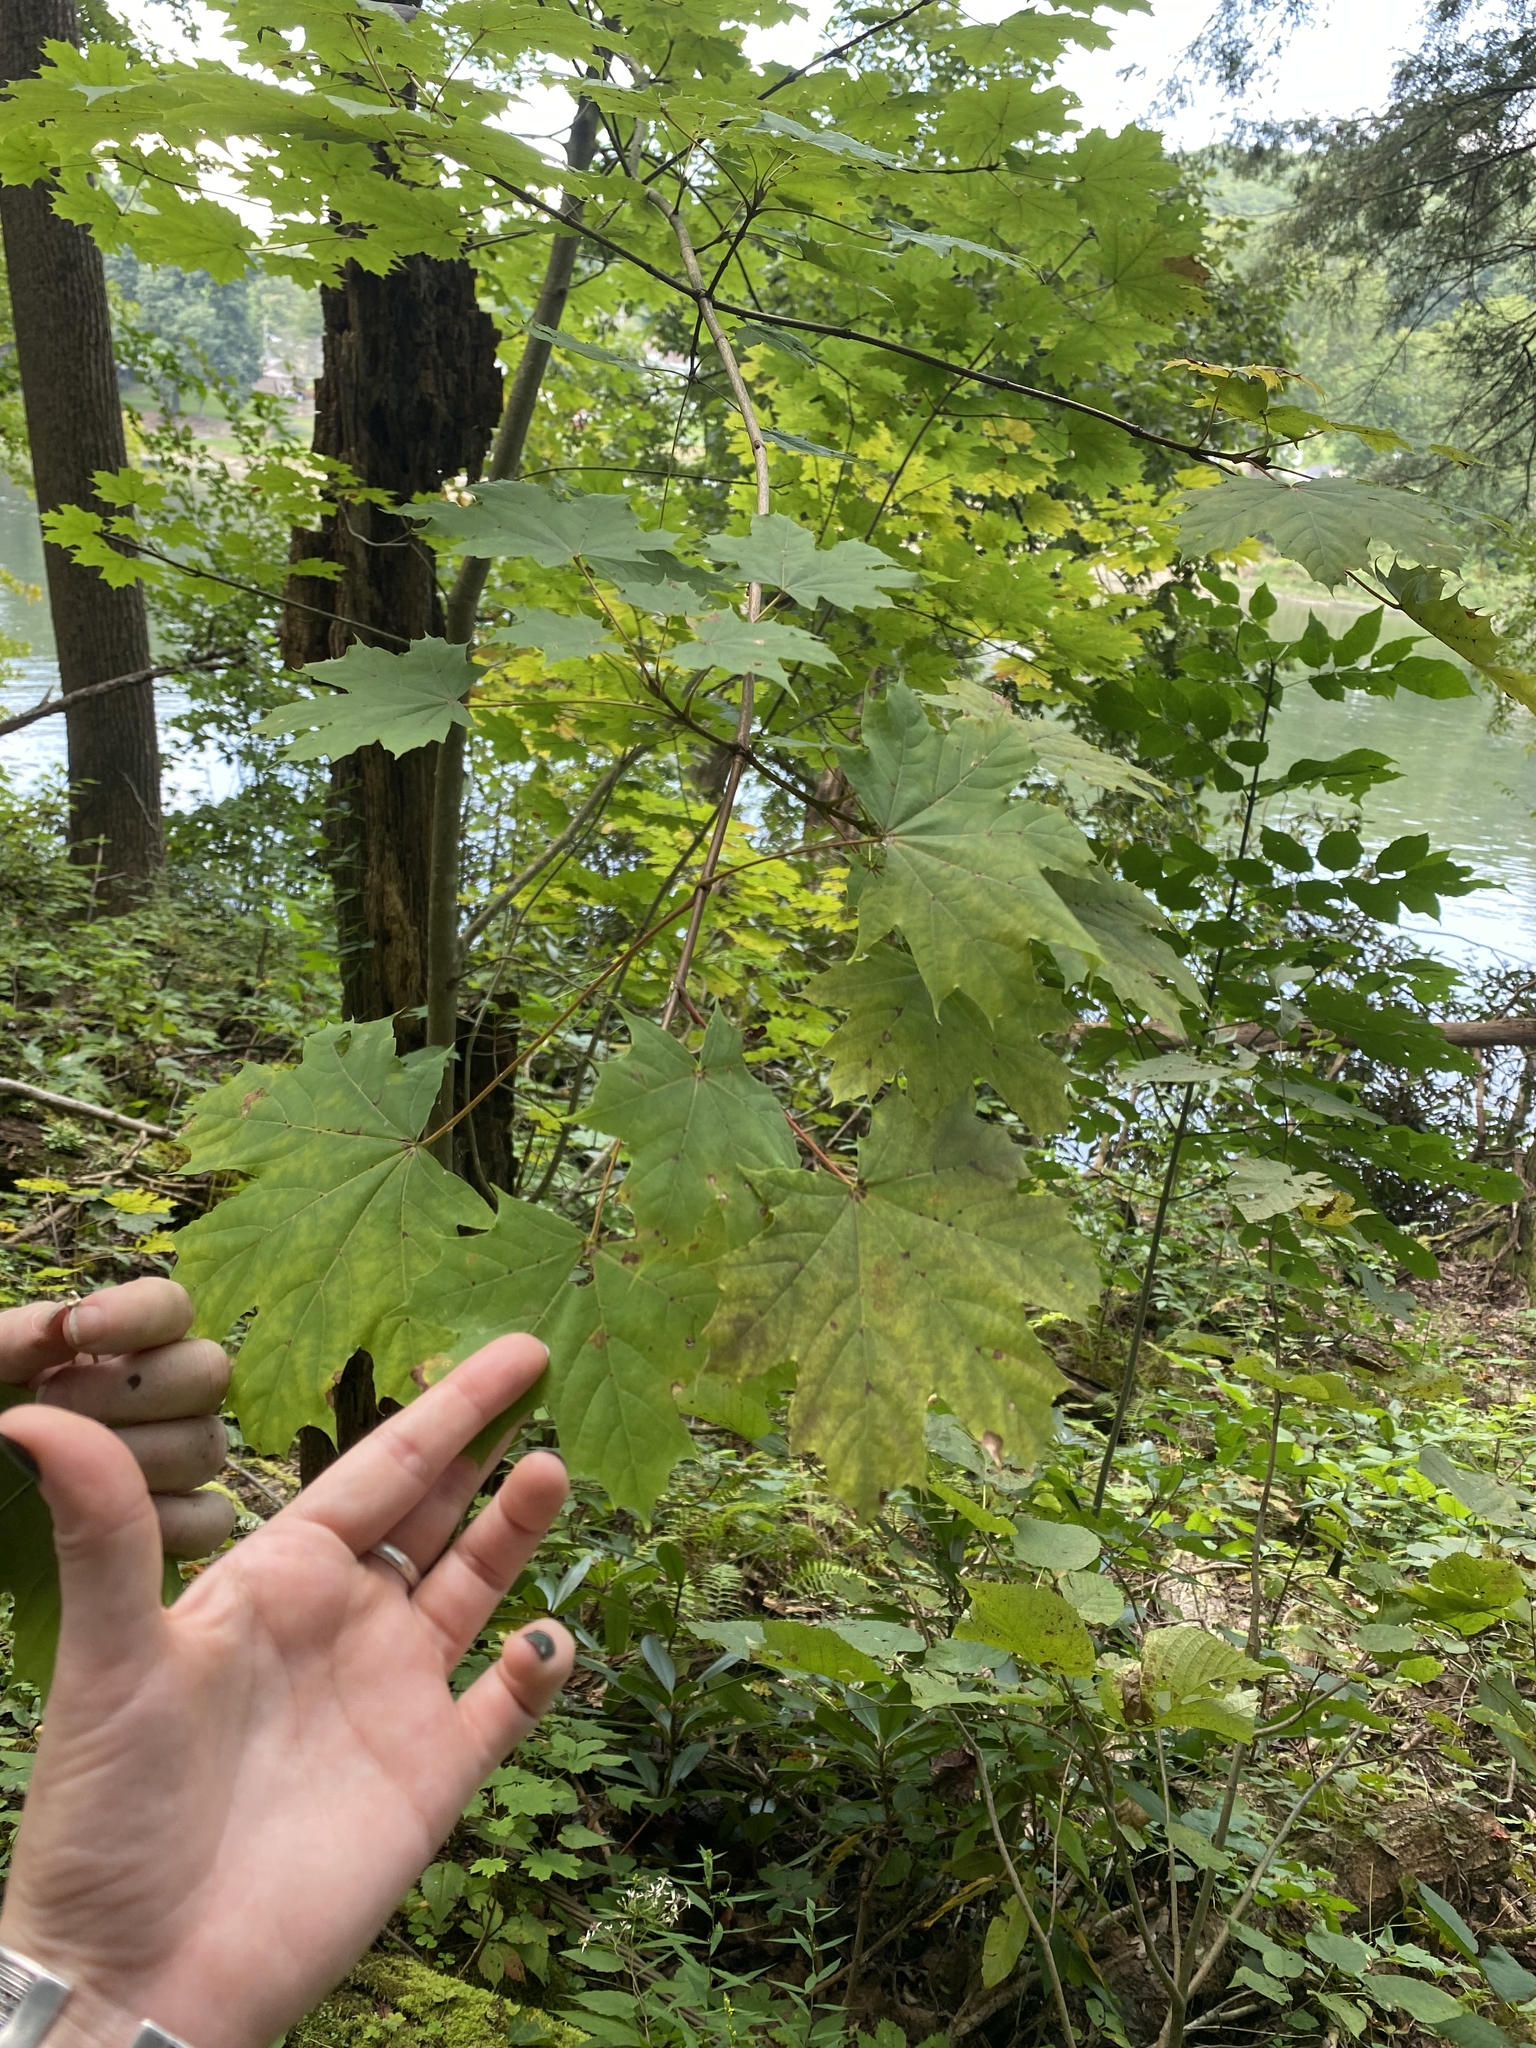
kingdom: Plantae
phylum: Tracheophyta
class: Magnoliopsida
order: Sapindales
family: Sapindaceae
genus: Acer
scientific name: Acer platanoides
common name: Norway maple
